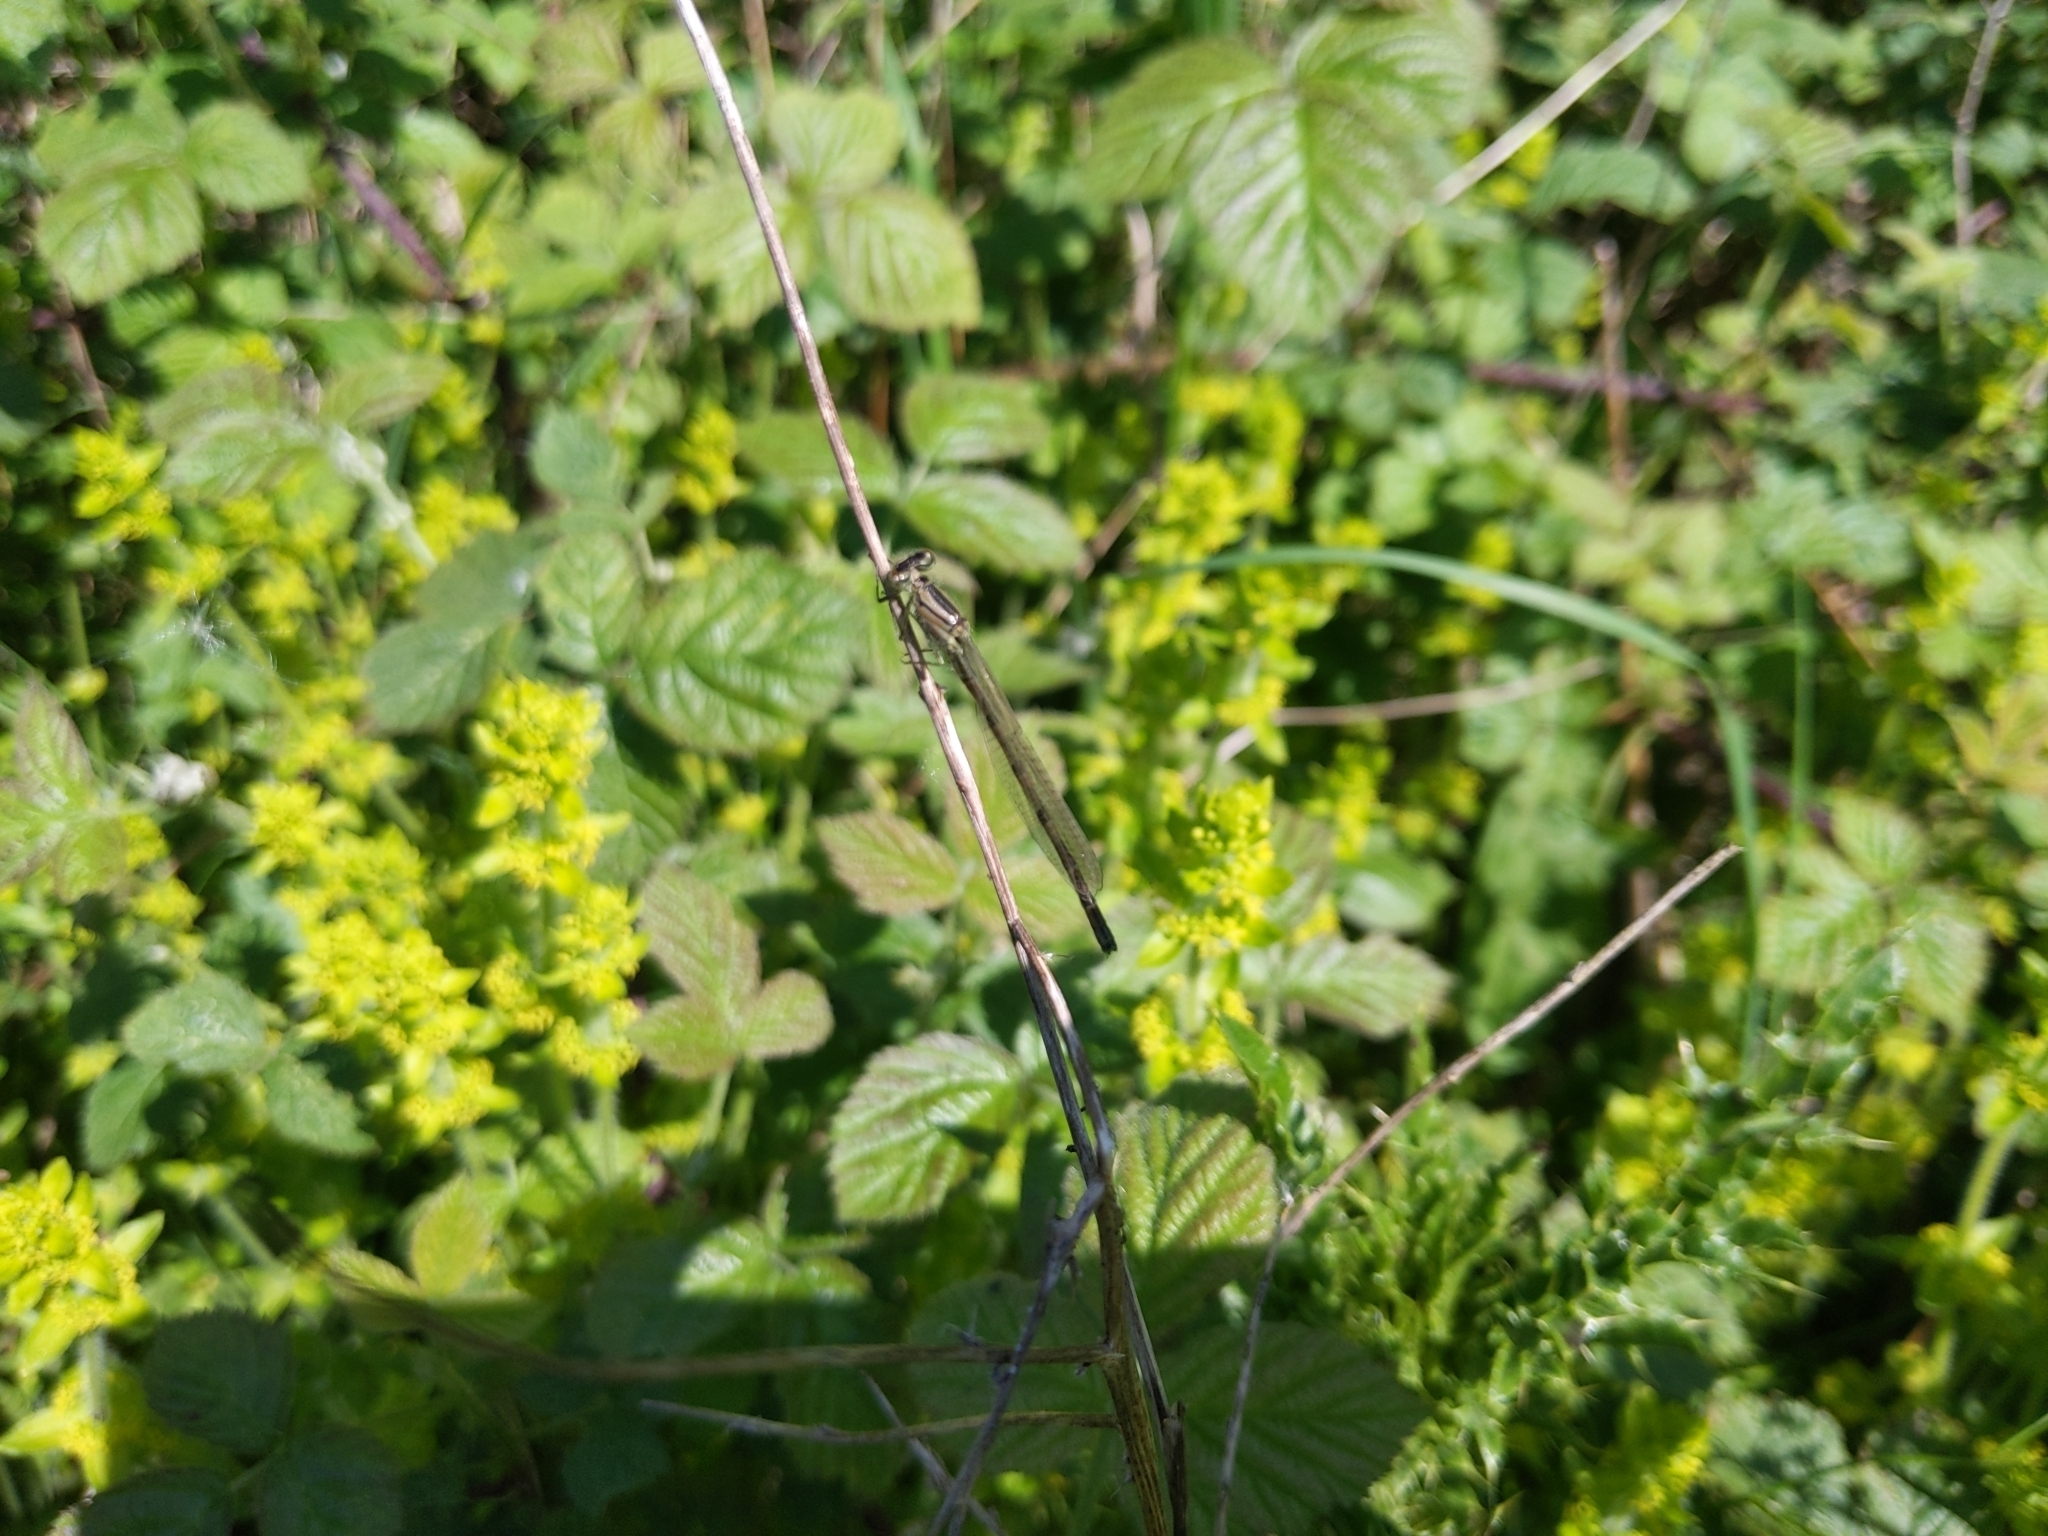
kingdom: Animalia
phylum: Arthropoda
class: Insecta
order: Odonata
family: Coenagrionidae
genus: Enallagma
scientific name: Enallagma cyathigerum
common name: Common blue damselfly
